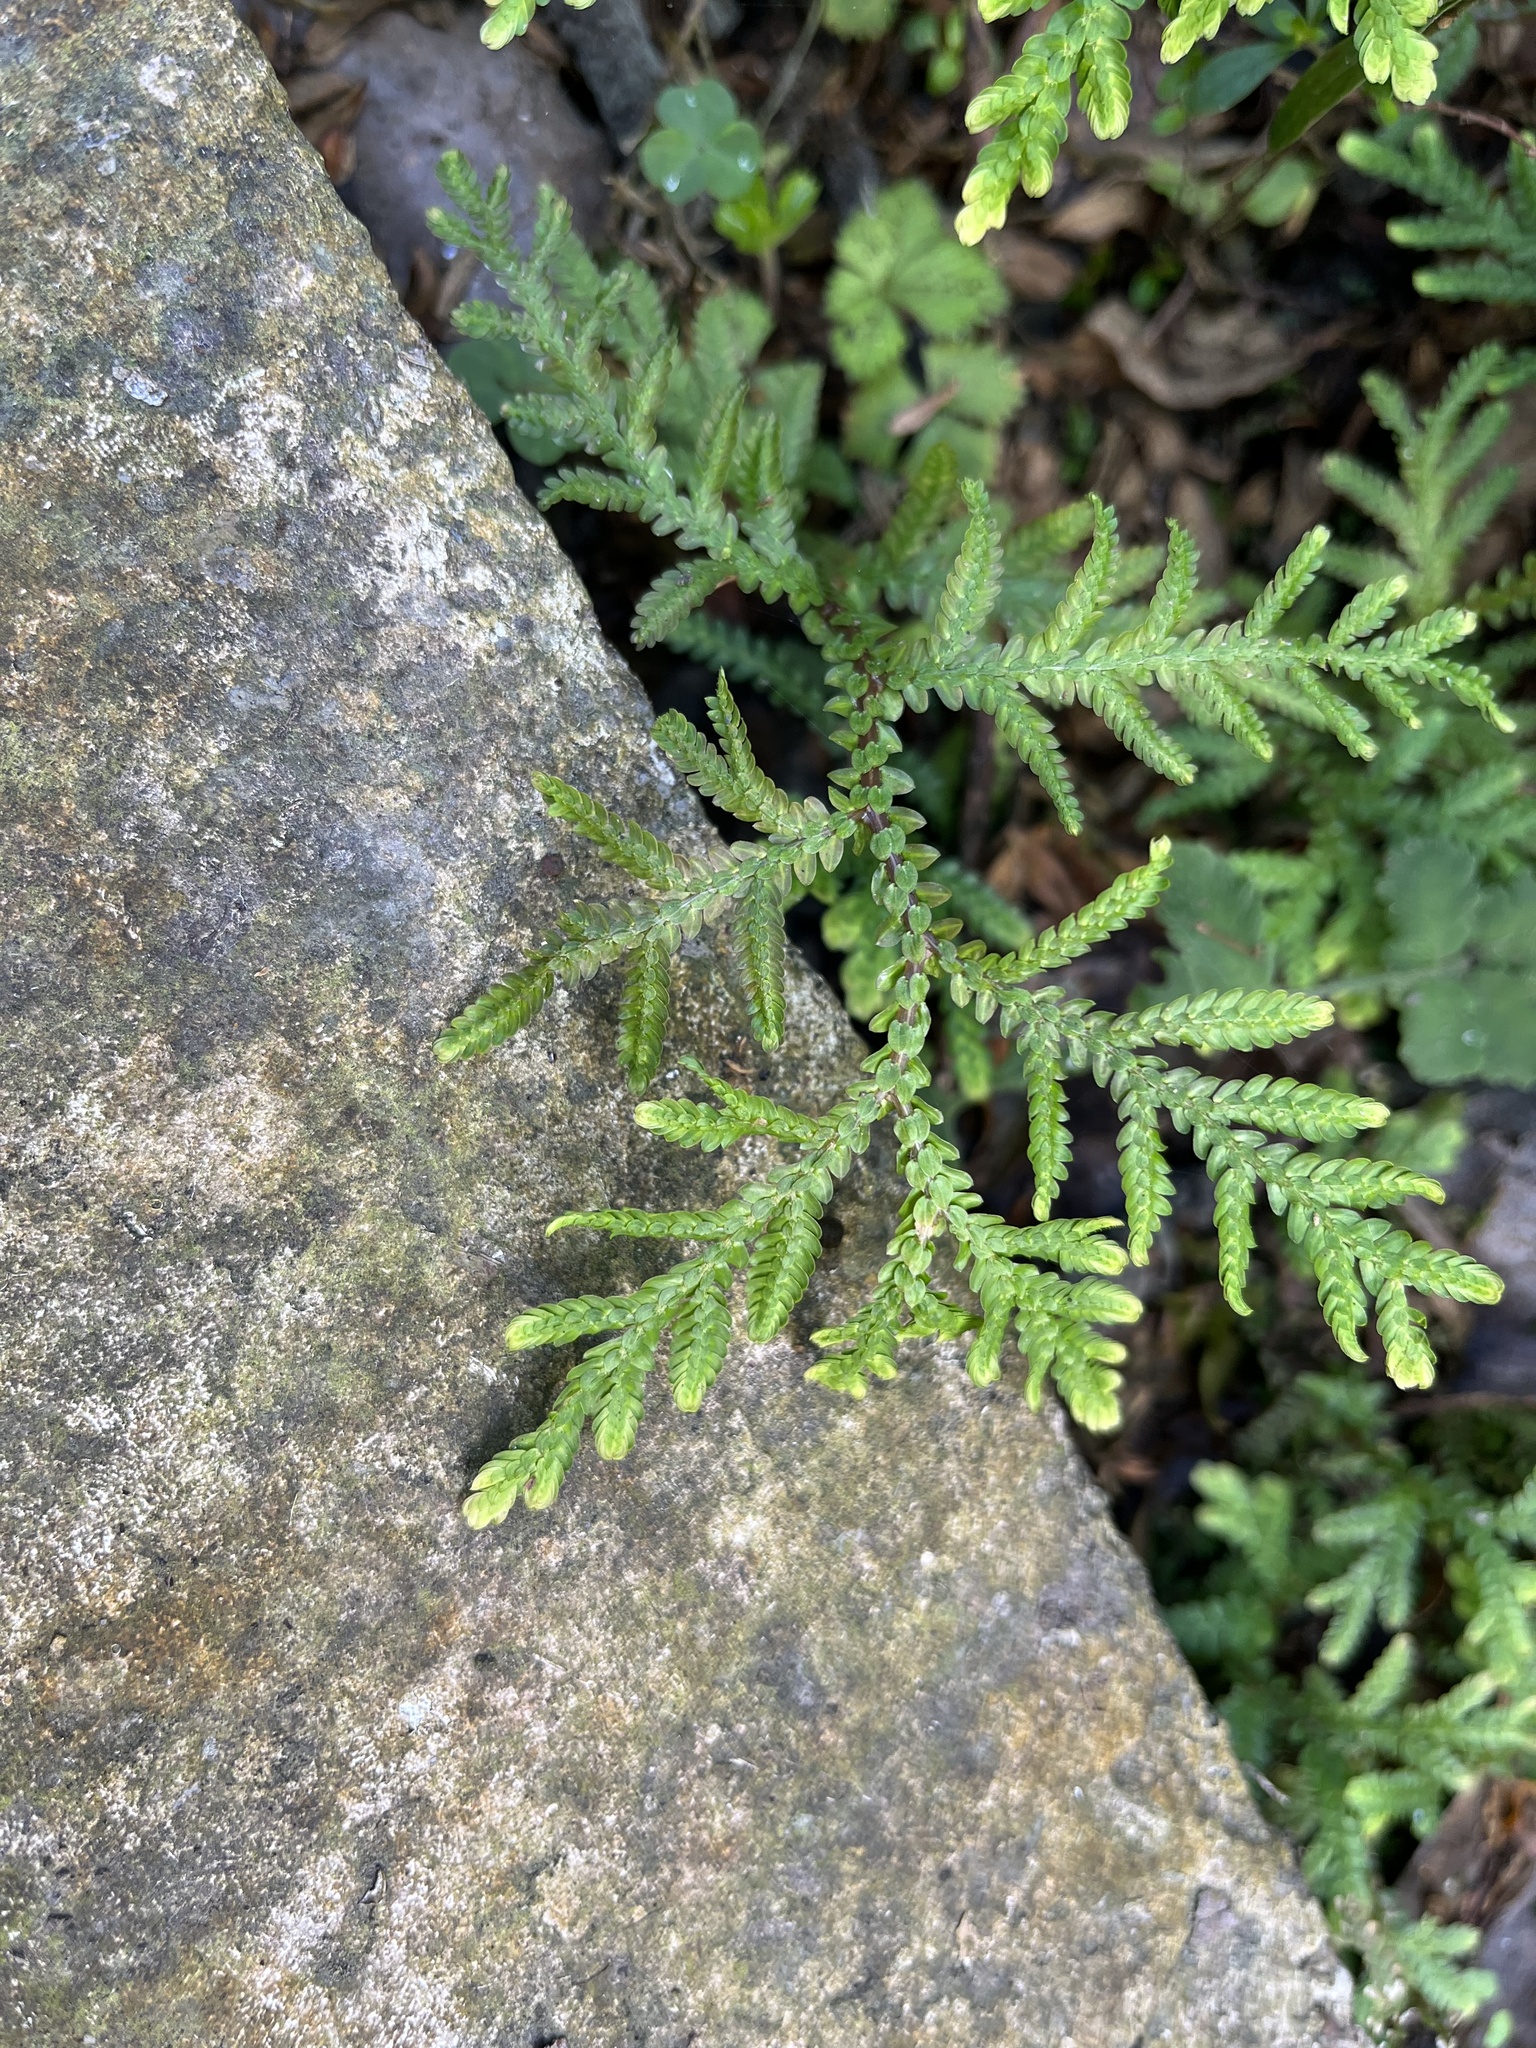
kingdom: Plantae
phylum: Tracheophyta
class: Lycopodiopsida
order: Selaginellales
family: Selaginellaceae
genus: Selaginella
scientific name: Selaginella delicatula
